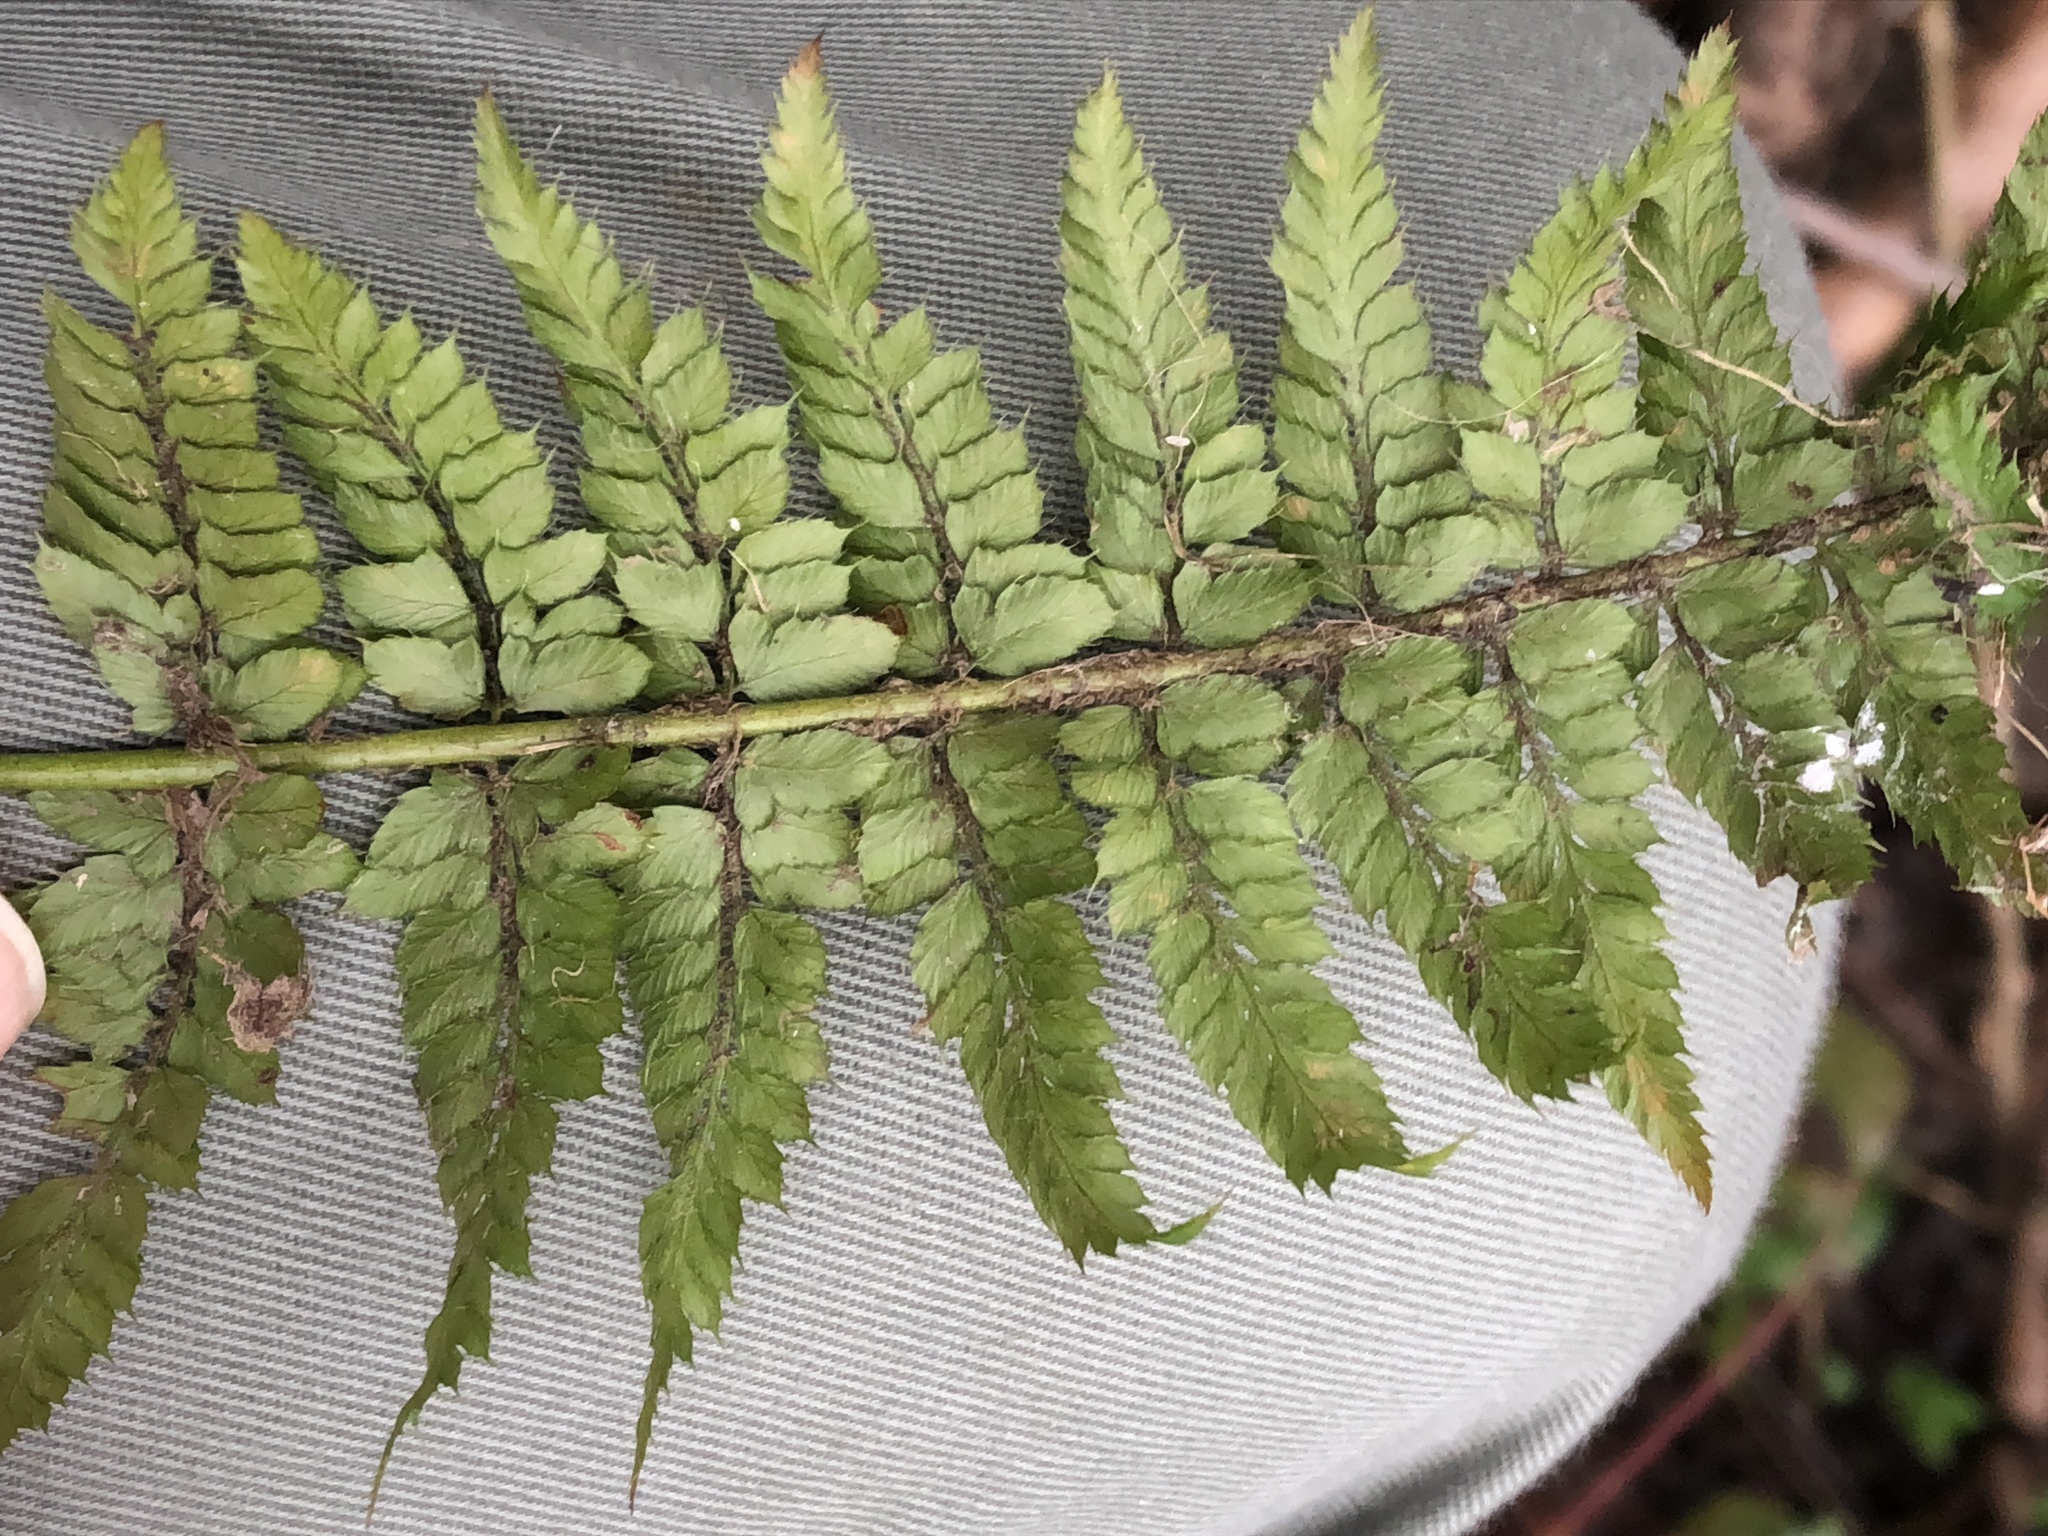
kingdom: Plantae
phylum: Tracheophyta
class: Polypodiopsida
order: Polypodiales
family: Dryopteridaceae
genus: Polystichum
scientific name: Polystichum setiferum
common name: Soft shield-fern
